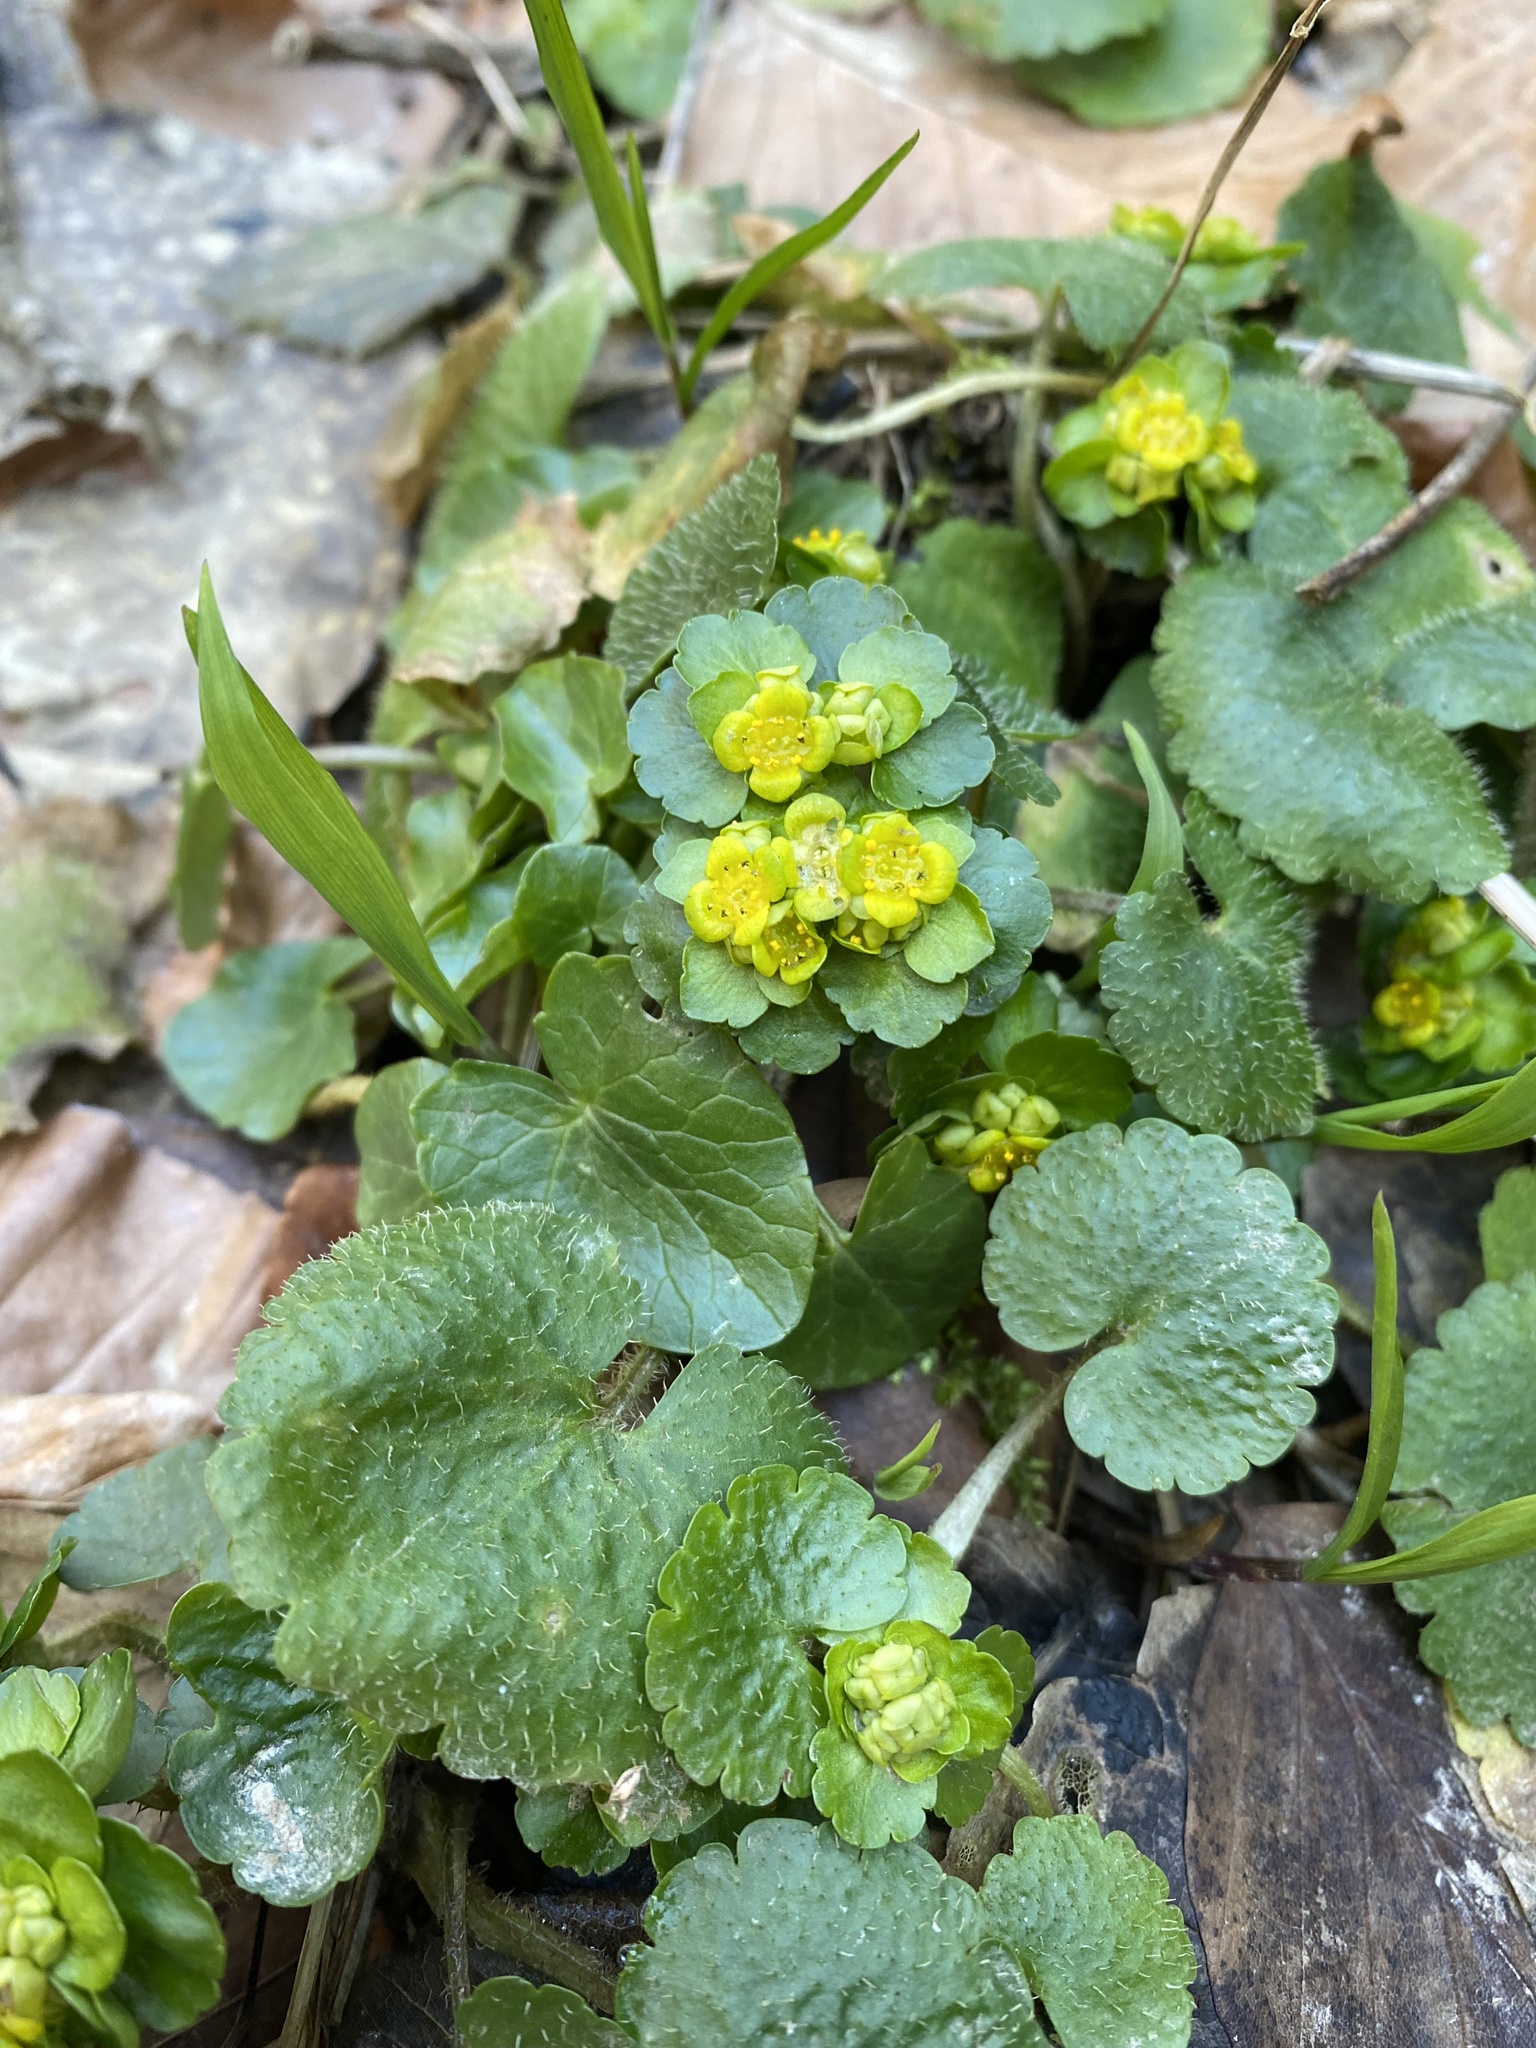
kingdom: Plantae
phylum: Tracheophyta
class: Magnoliopsida
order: Saxifragales
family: Saxifragaceae
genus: Chrysosplenium
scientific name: Chrysosplenium alternifolium
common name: Alternate-leaved golden-saxifrage
